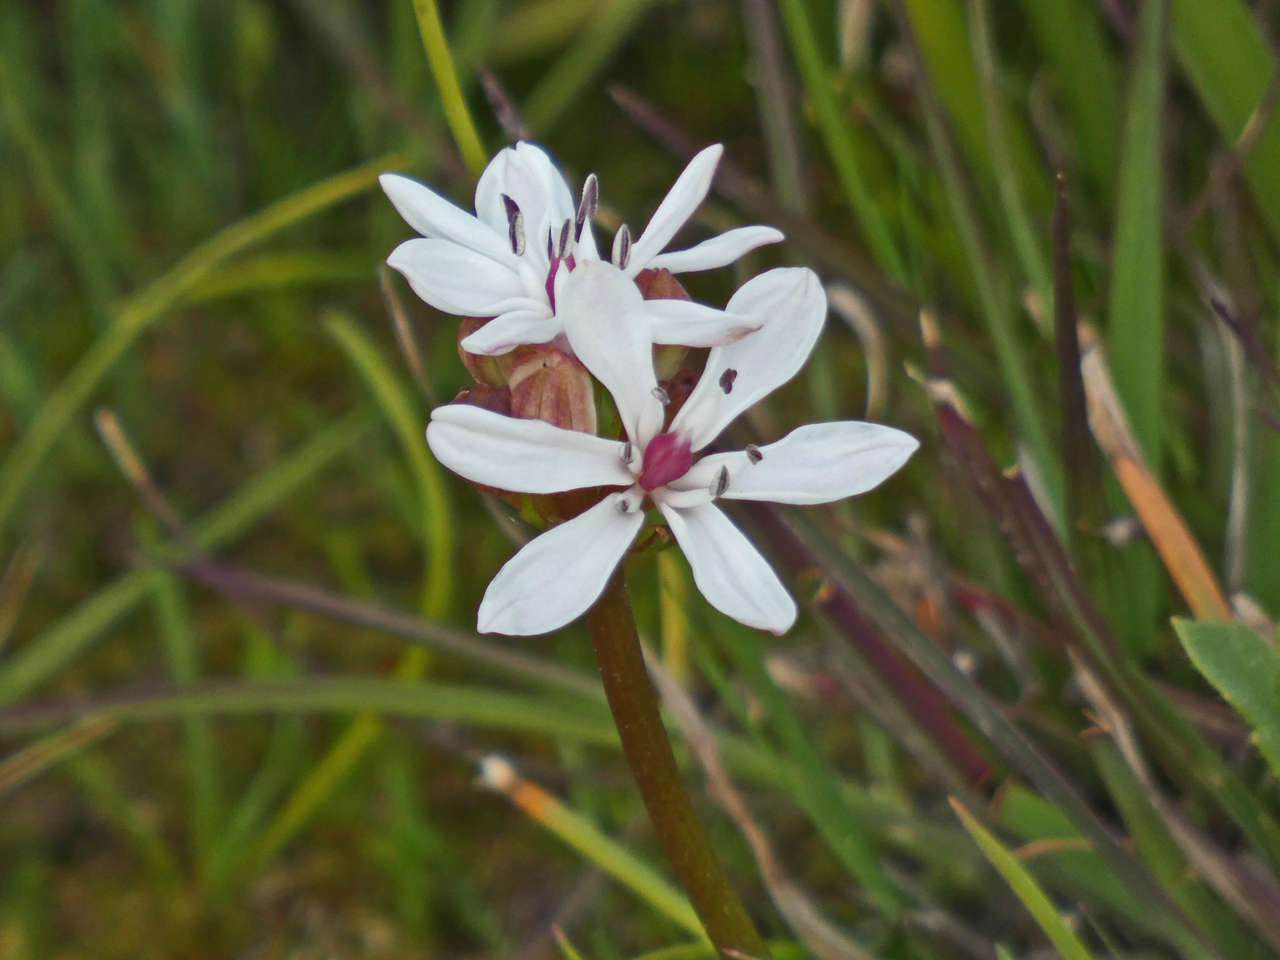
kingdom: Plantae
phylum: Tracheophyta
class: Liliopsida
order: Liliales
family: Colchicaceae
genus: Burchardia
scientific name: Burchardia umbellata
